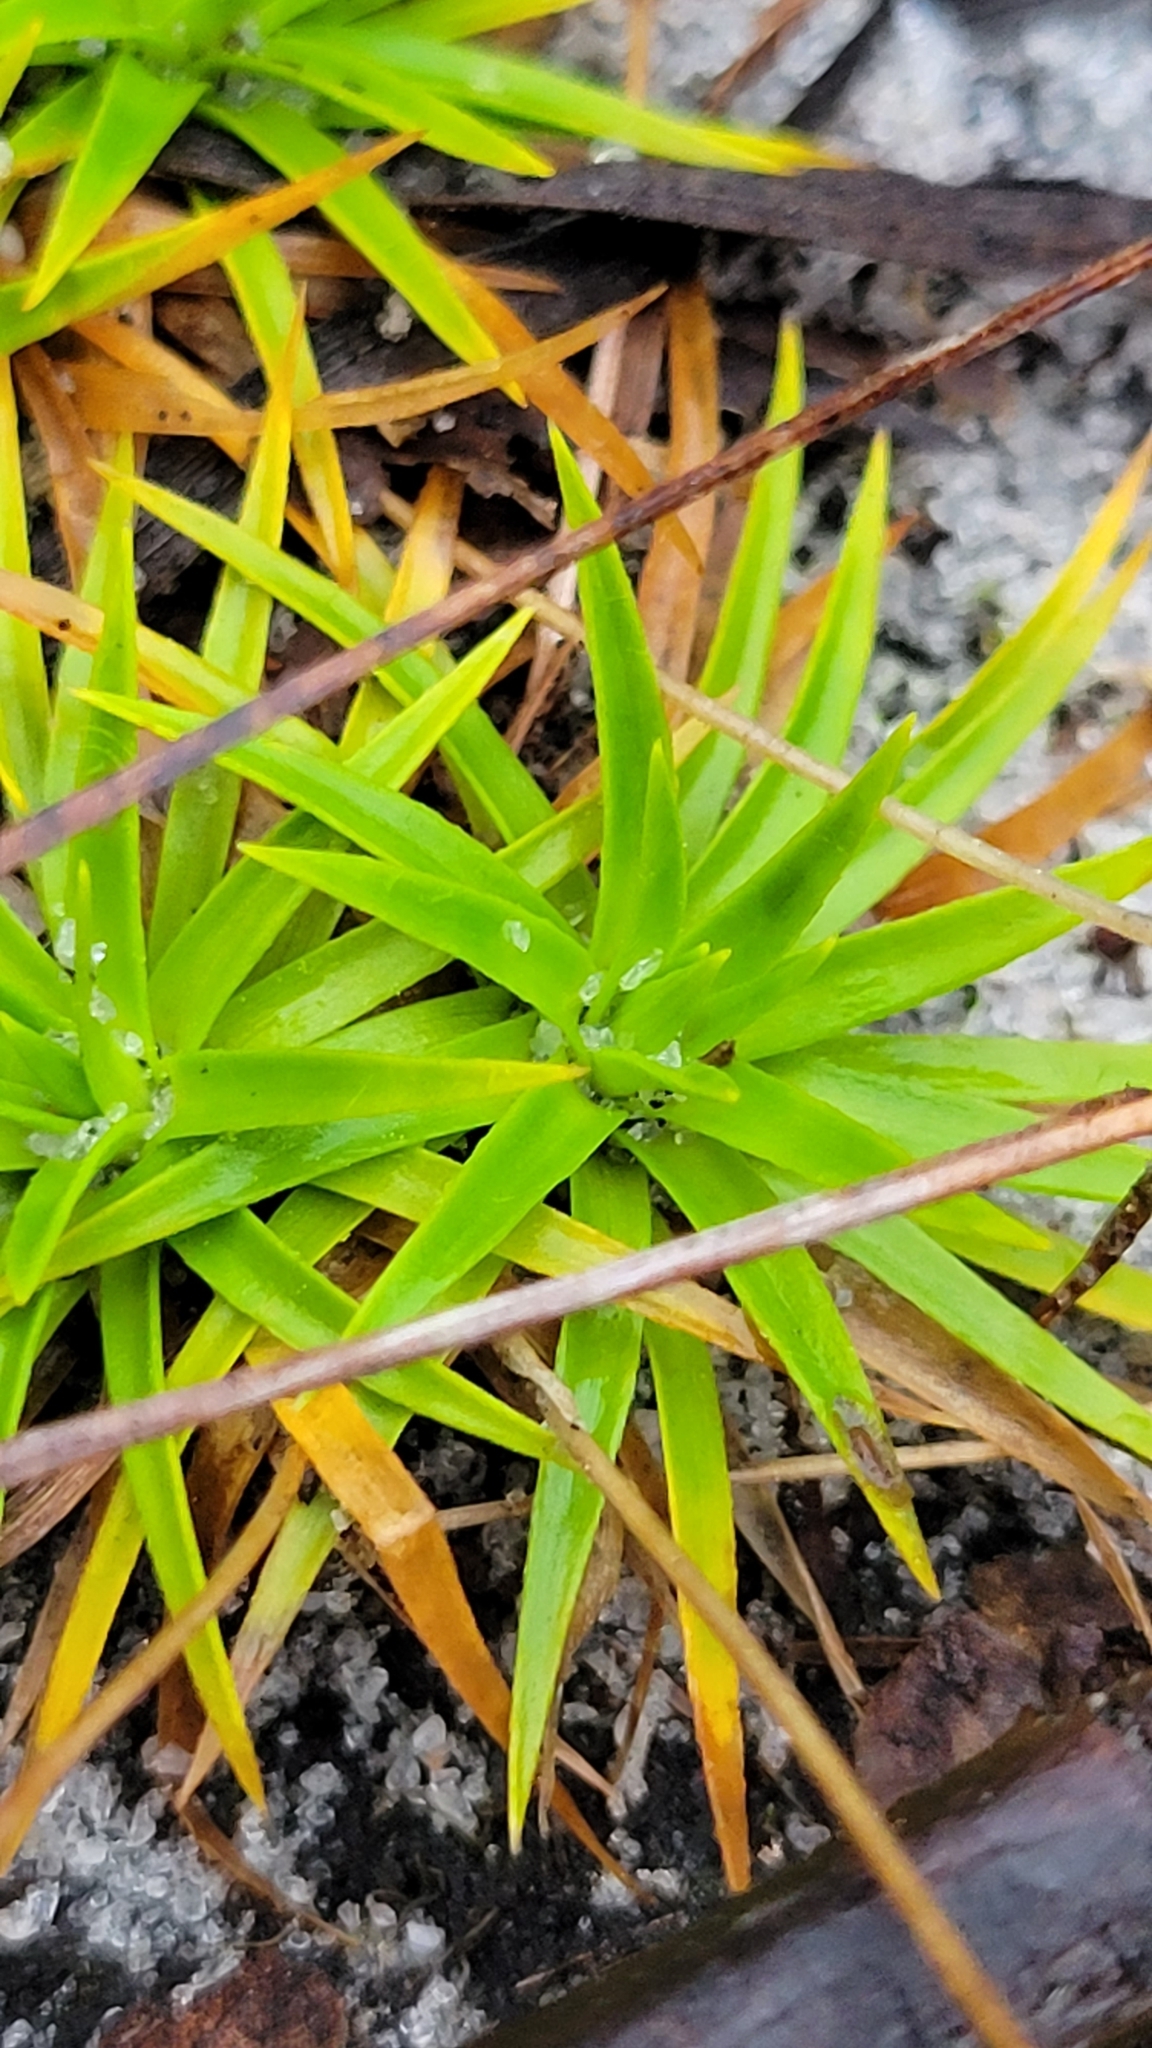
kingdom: Plantae
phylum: Tracheophyta
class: Liliopsida
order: Poales
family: Eriocaulaceae
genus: Paepalanthus
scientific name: Paepalanthus beyrichianus
